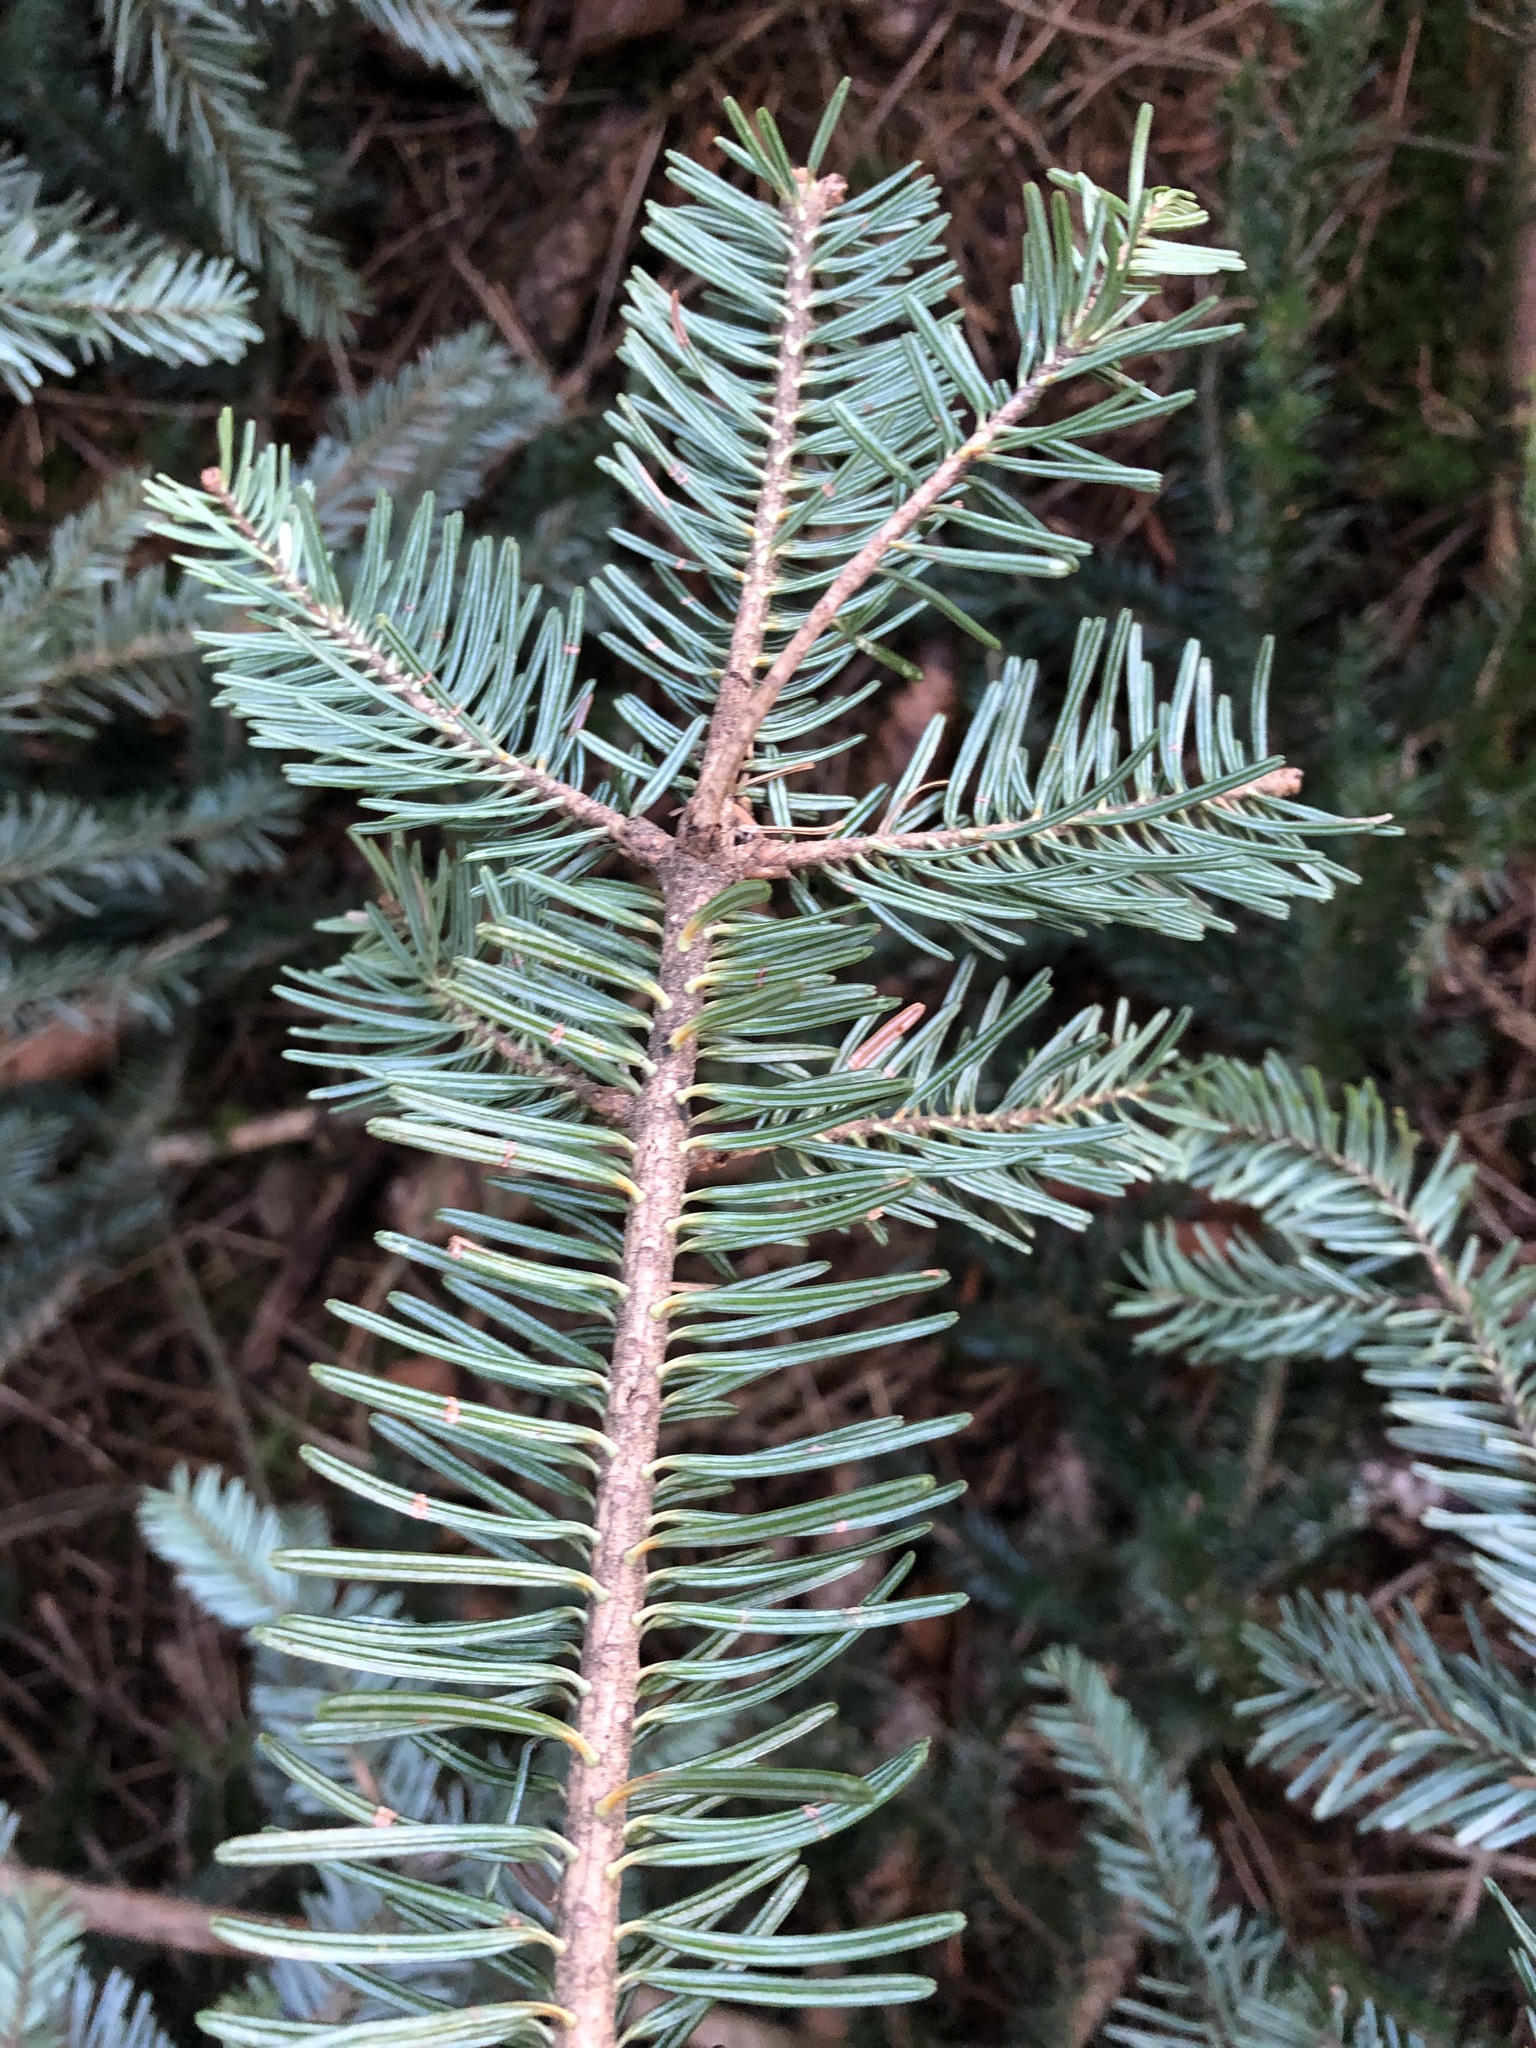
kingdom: Plantae
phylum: Tracheophyta
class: Pinopsida
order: Pinales
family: Pinaceae
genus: Abies
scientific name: Abies alba
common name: Silver fir
